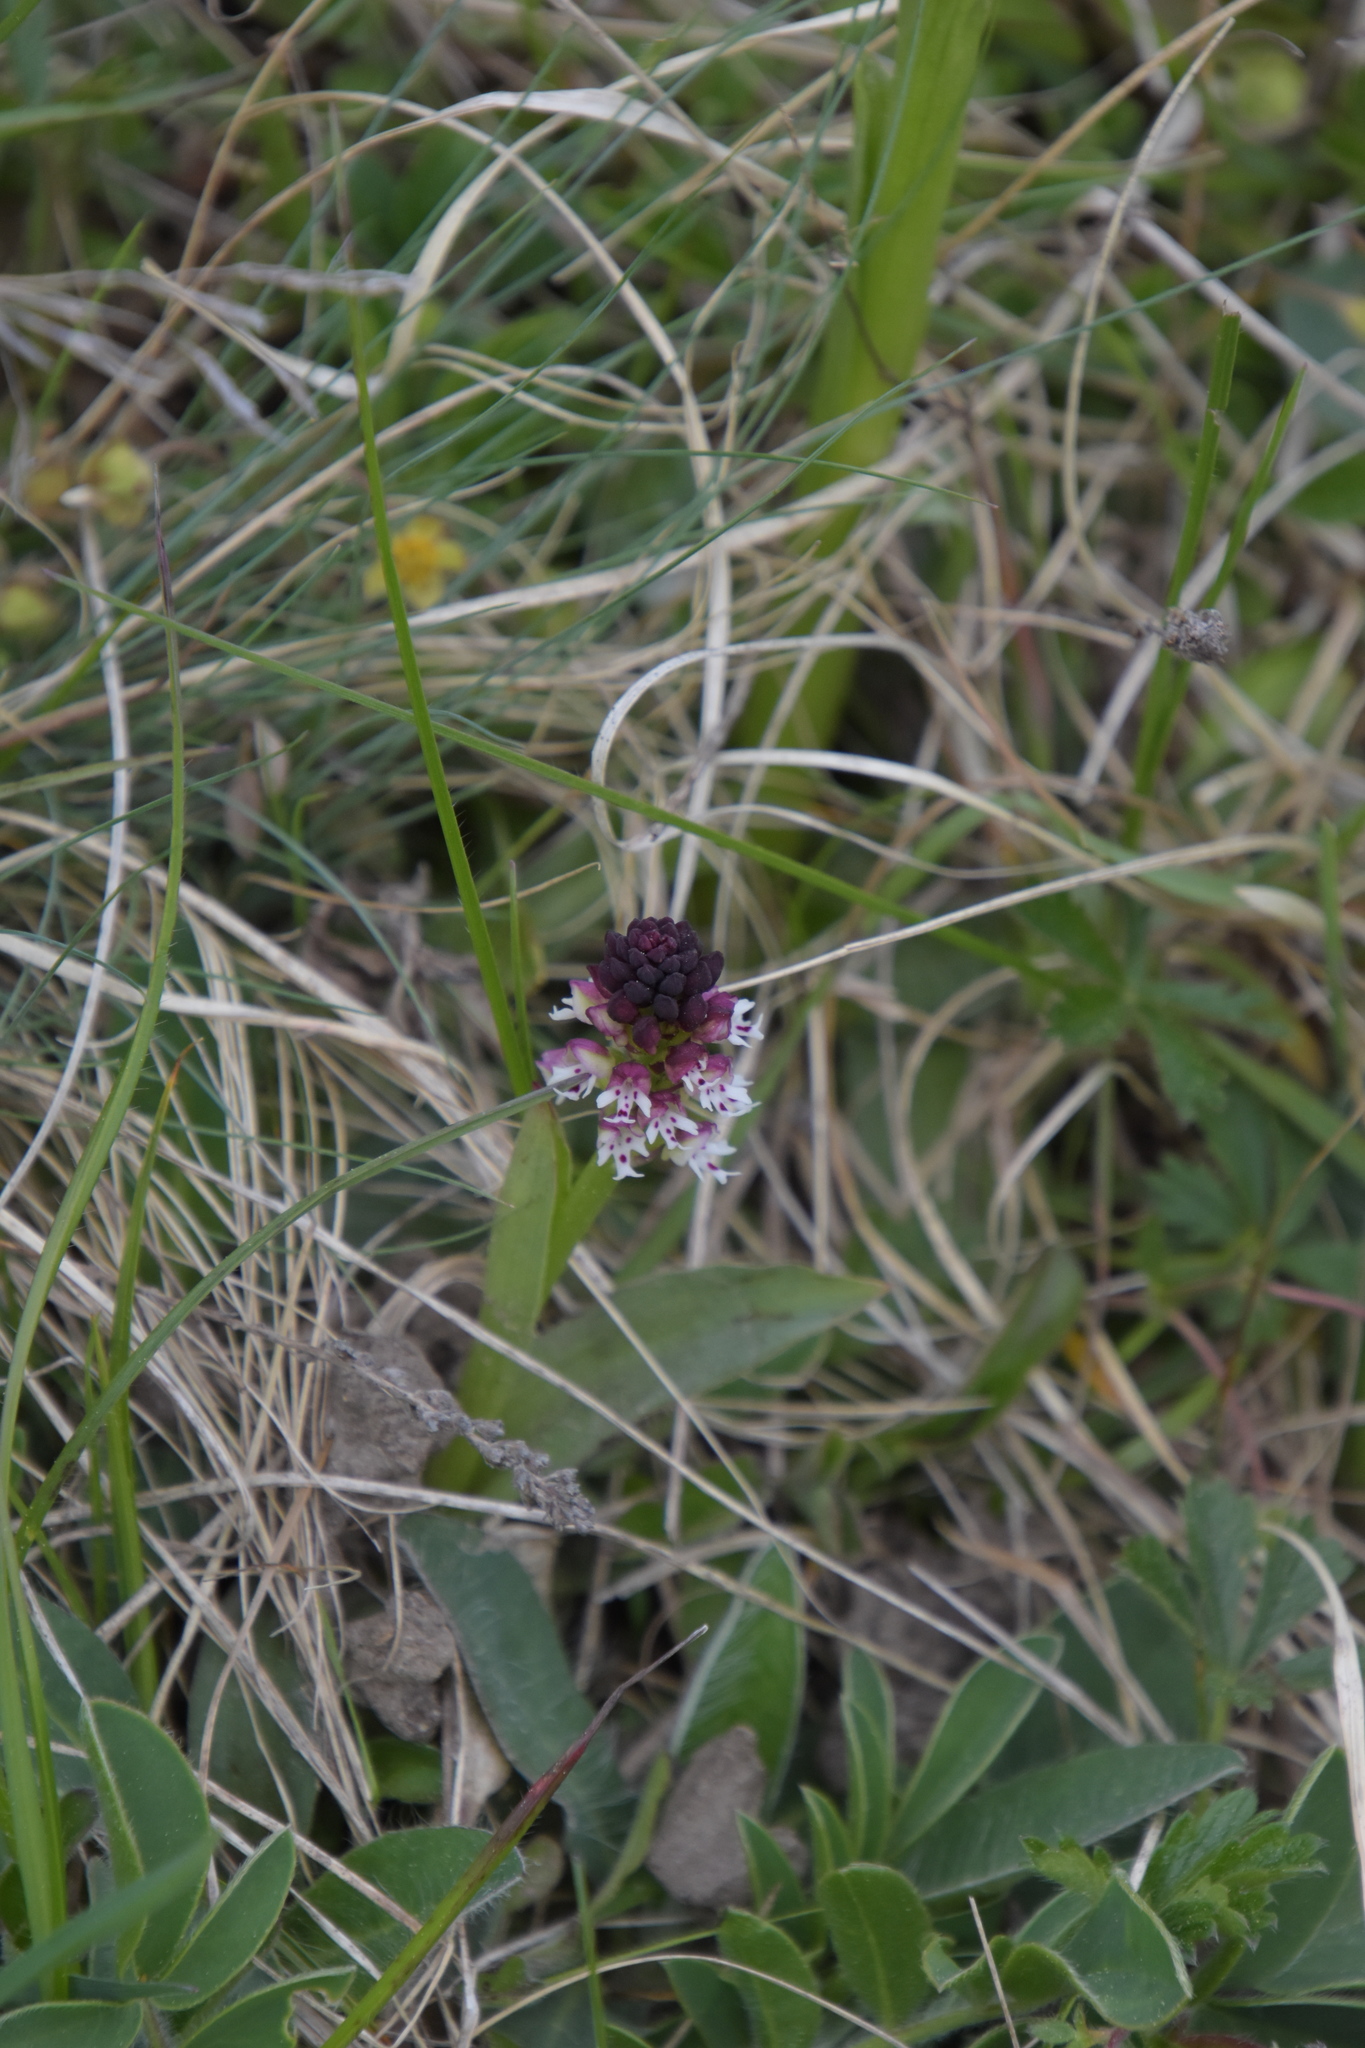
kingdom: Plantae
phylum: Tracheophyta
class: Liliopsida
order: Asparagales
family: Orchidaceae
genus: Neotinea
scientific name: Neotinea ustulata
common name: Burnt orchid
